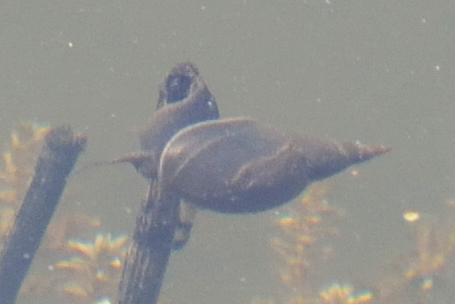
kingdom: Animalia
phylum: Mollusca
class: Gastropoda
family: Lymnaeidae
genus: Lymnaea
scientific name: Lymnaea stagnalis
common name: Great pond snail
